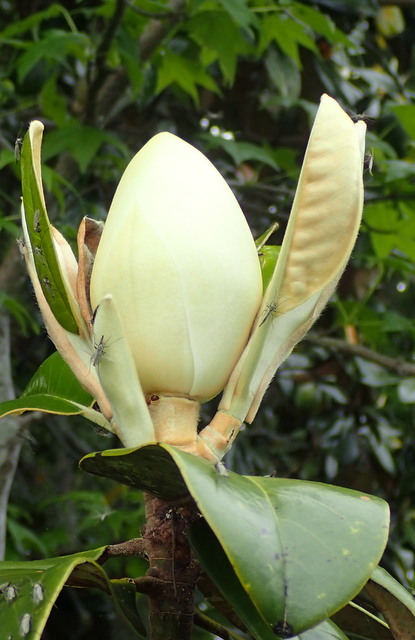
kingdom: Plantae
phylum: Tracheophyta
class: Magnoliopsida
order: Magnoliales
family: Magnoliaceae
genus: Magnolia
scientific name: Magnolia grandiflora
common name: Southern magnolia
